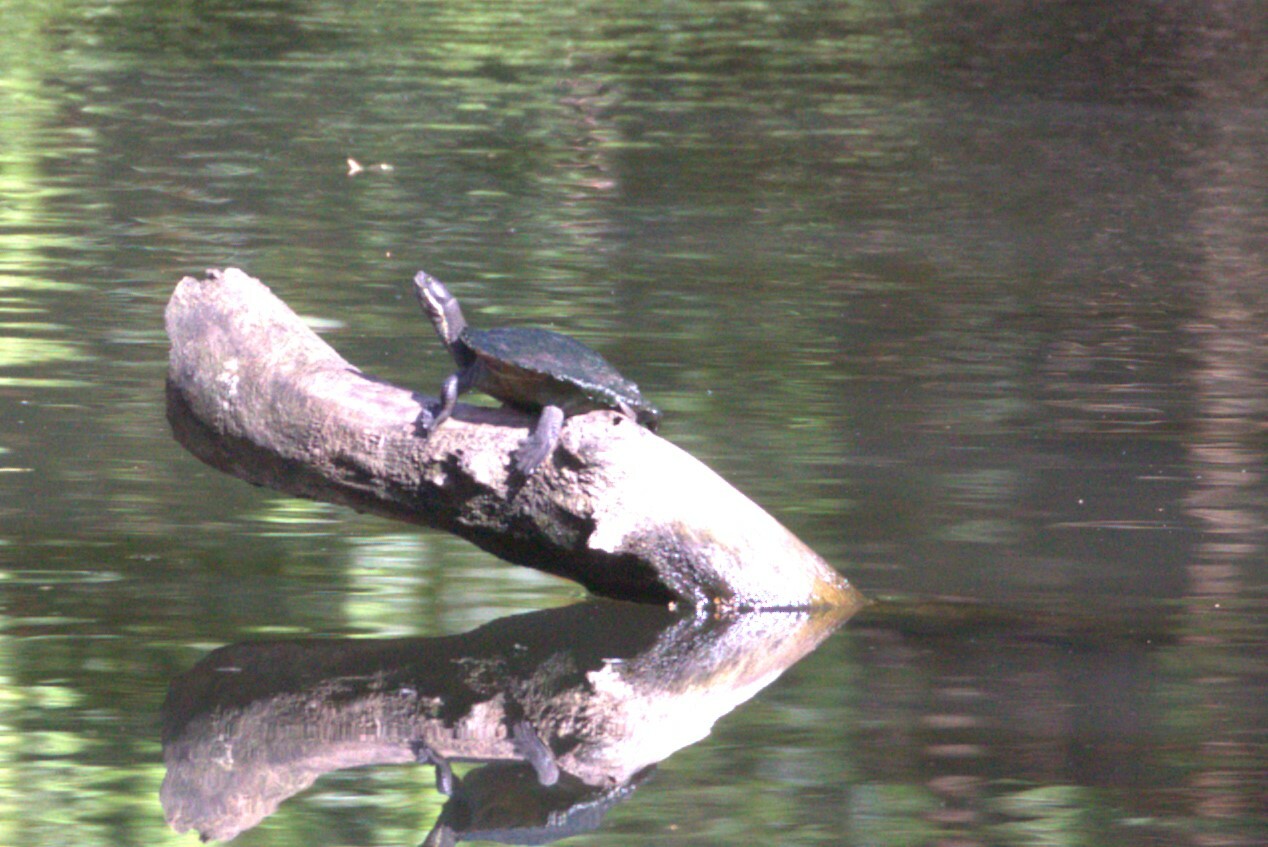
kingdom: Animalia
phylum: Chordata
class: Testudines
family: Chelidae
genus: Emydura
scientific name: Emydura macquarii
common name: Murray river turtle
